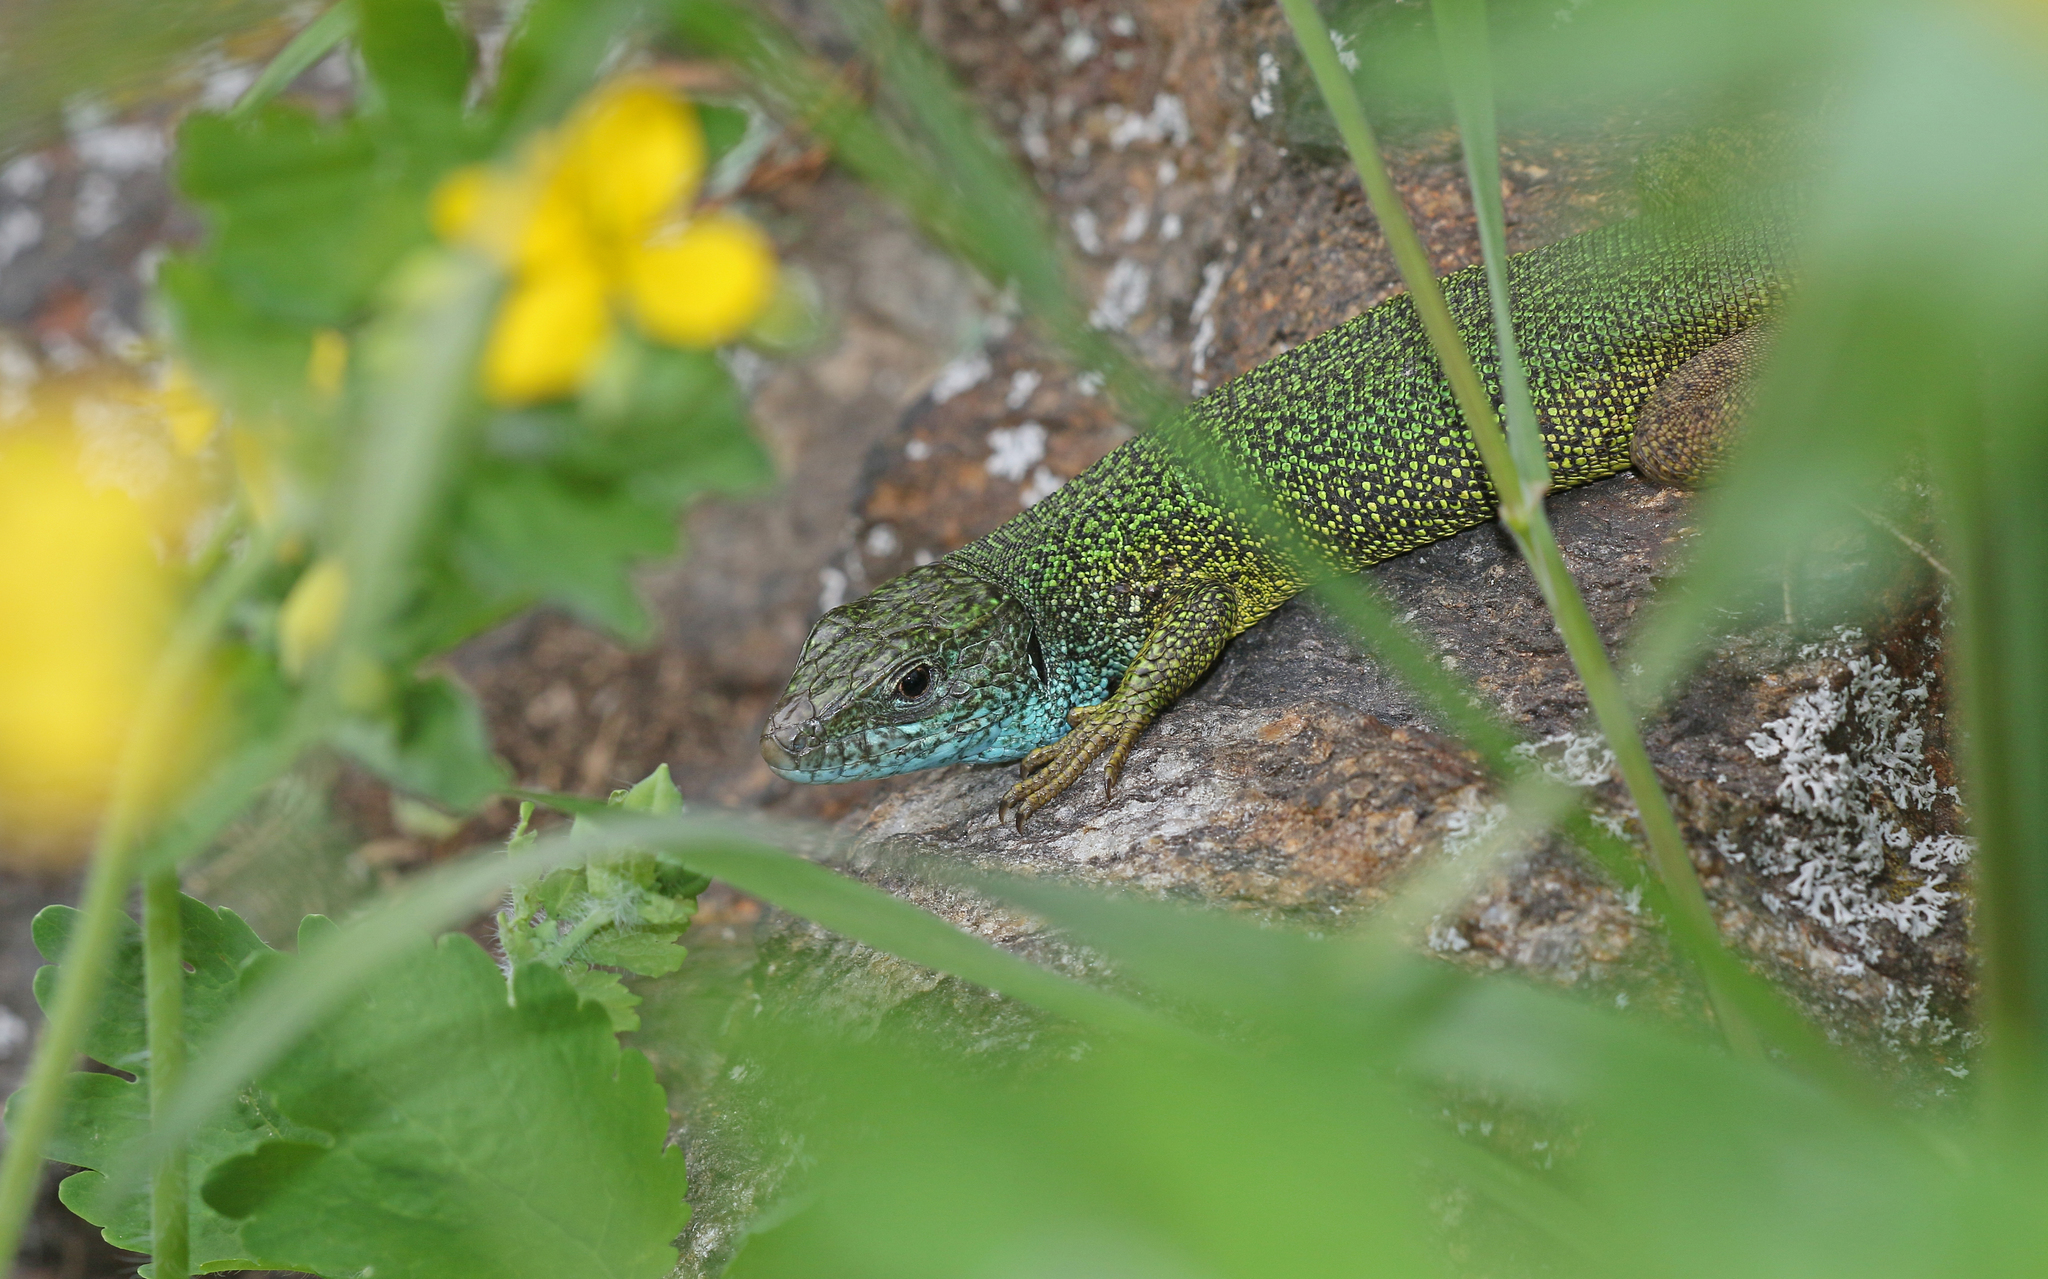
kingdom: Animalia
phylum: Chordata
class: Squamata
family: Lacertidae
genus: Lacerta
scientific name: Lacerta viridis
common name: European green lizard
